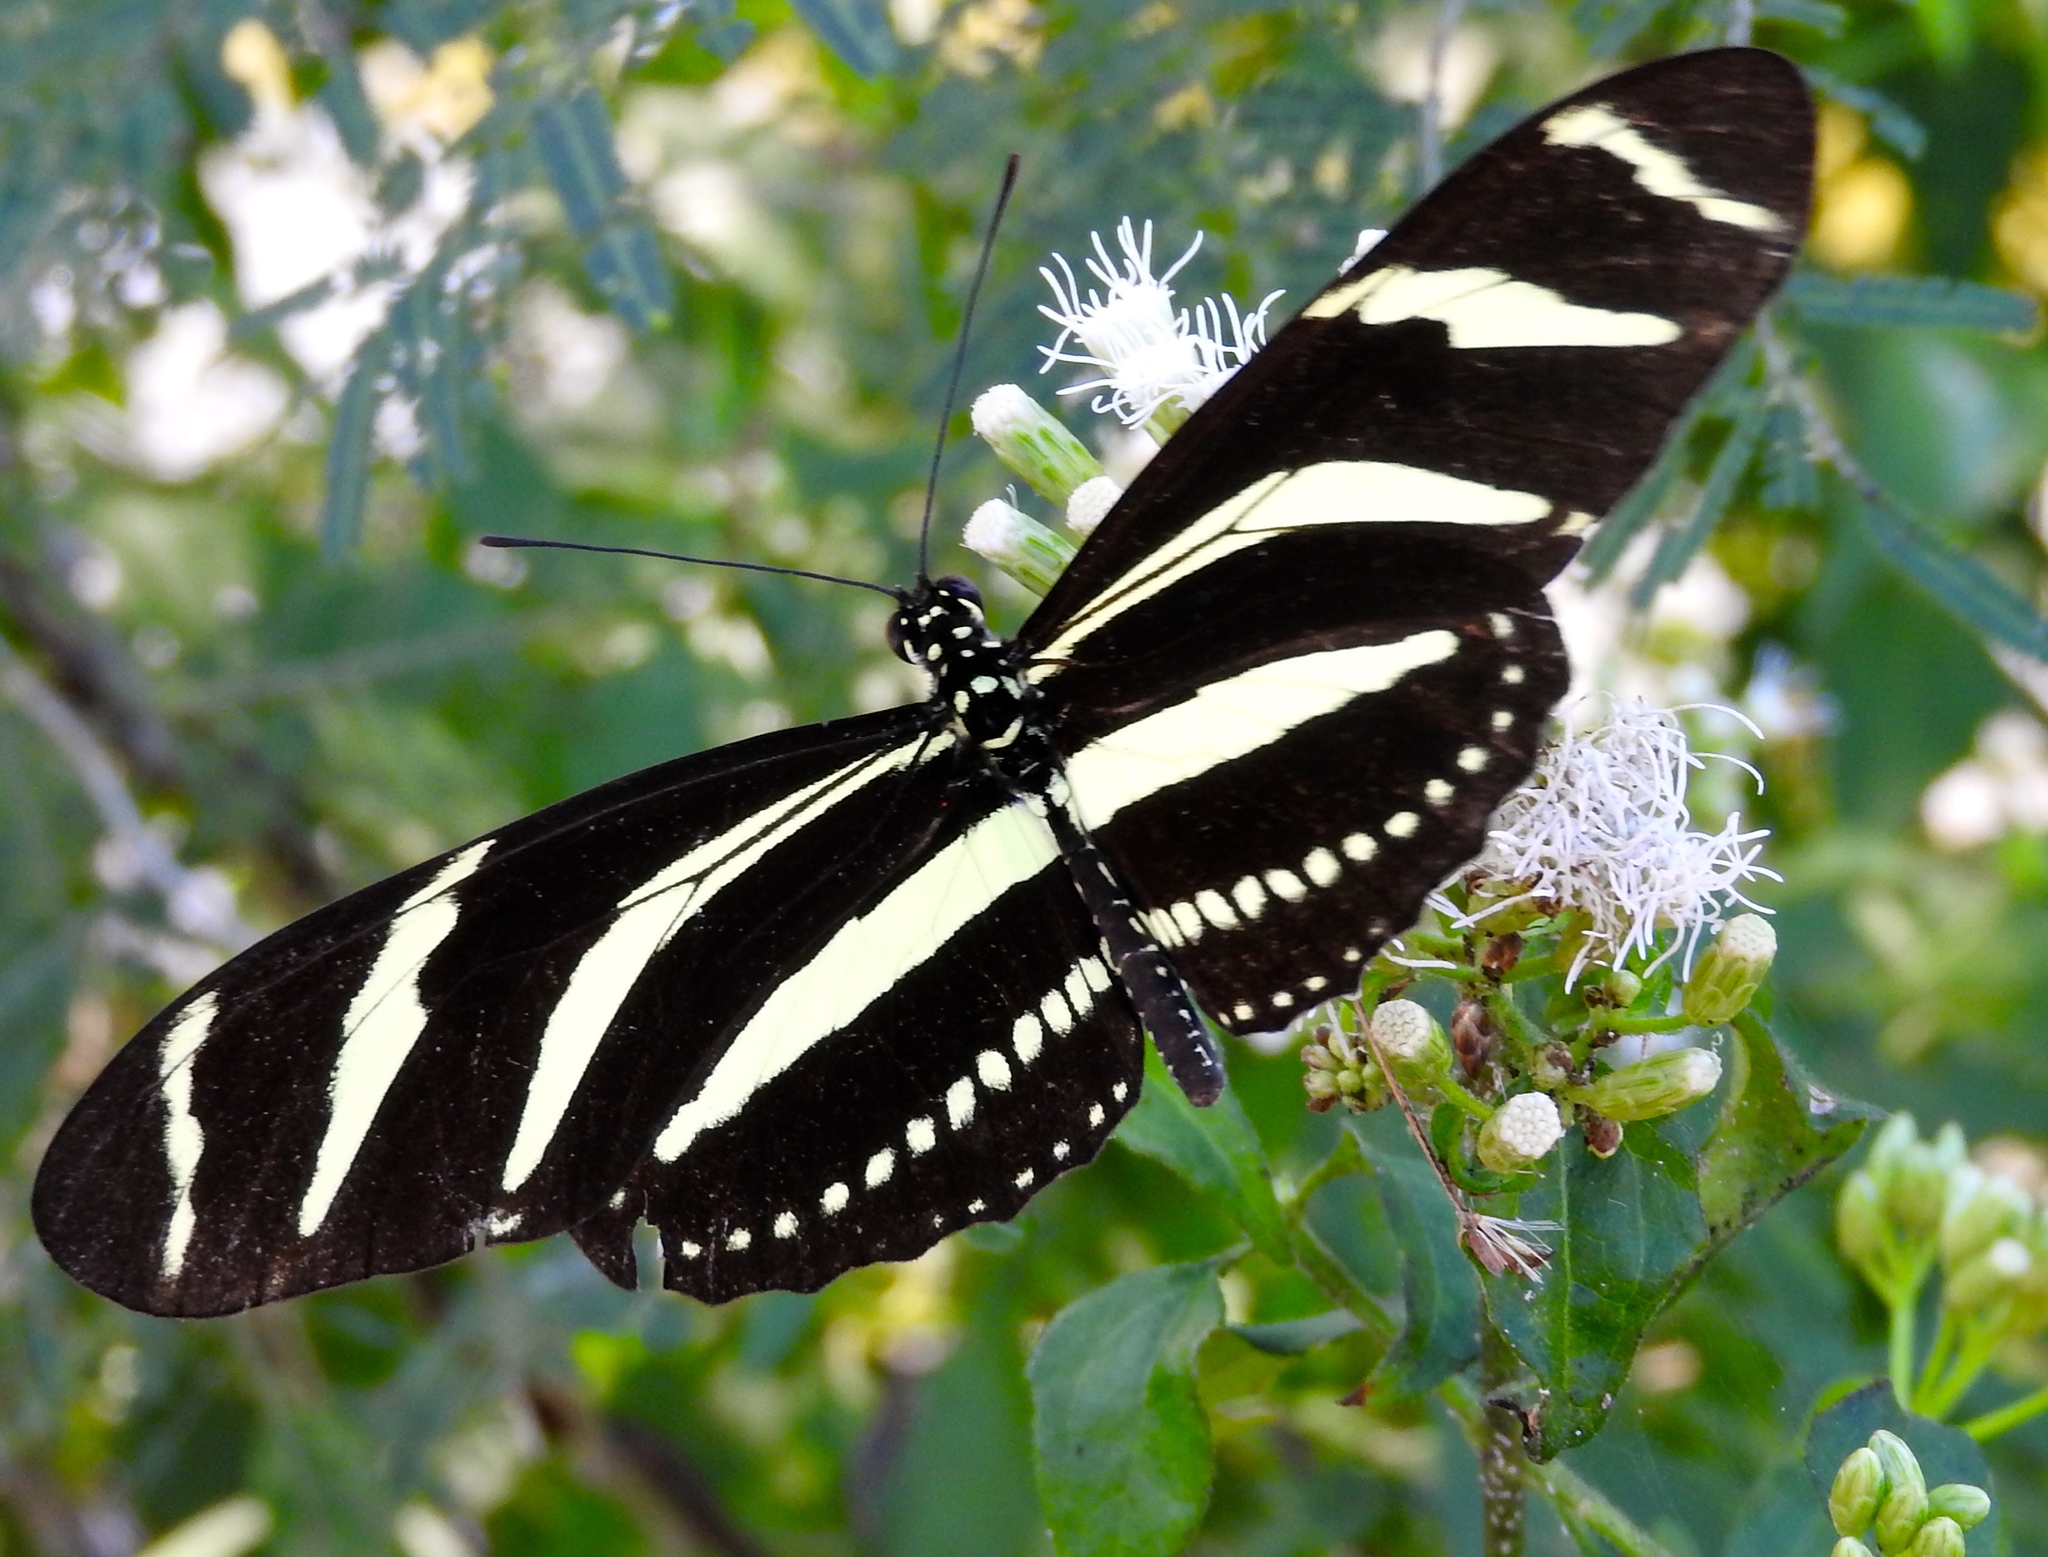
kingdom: Animalia
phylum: Arthropoda
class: Insecta
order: Lepidoptera
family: Nymphalidae
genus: Heliconius
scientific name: Heliconius charithonia
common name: Zebra long wing
